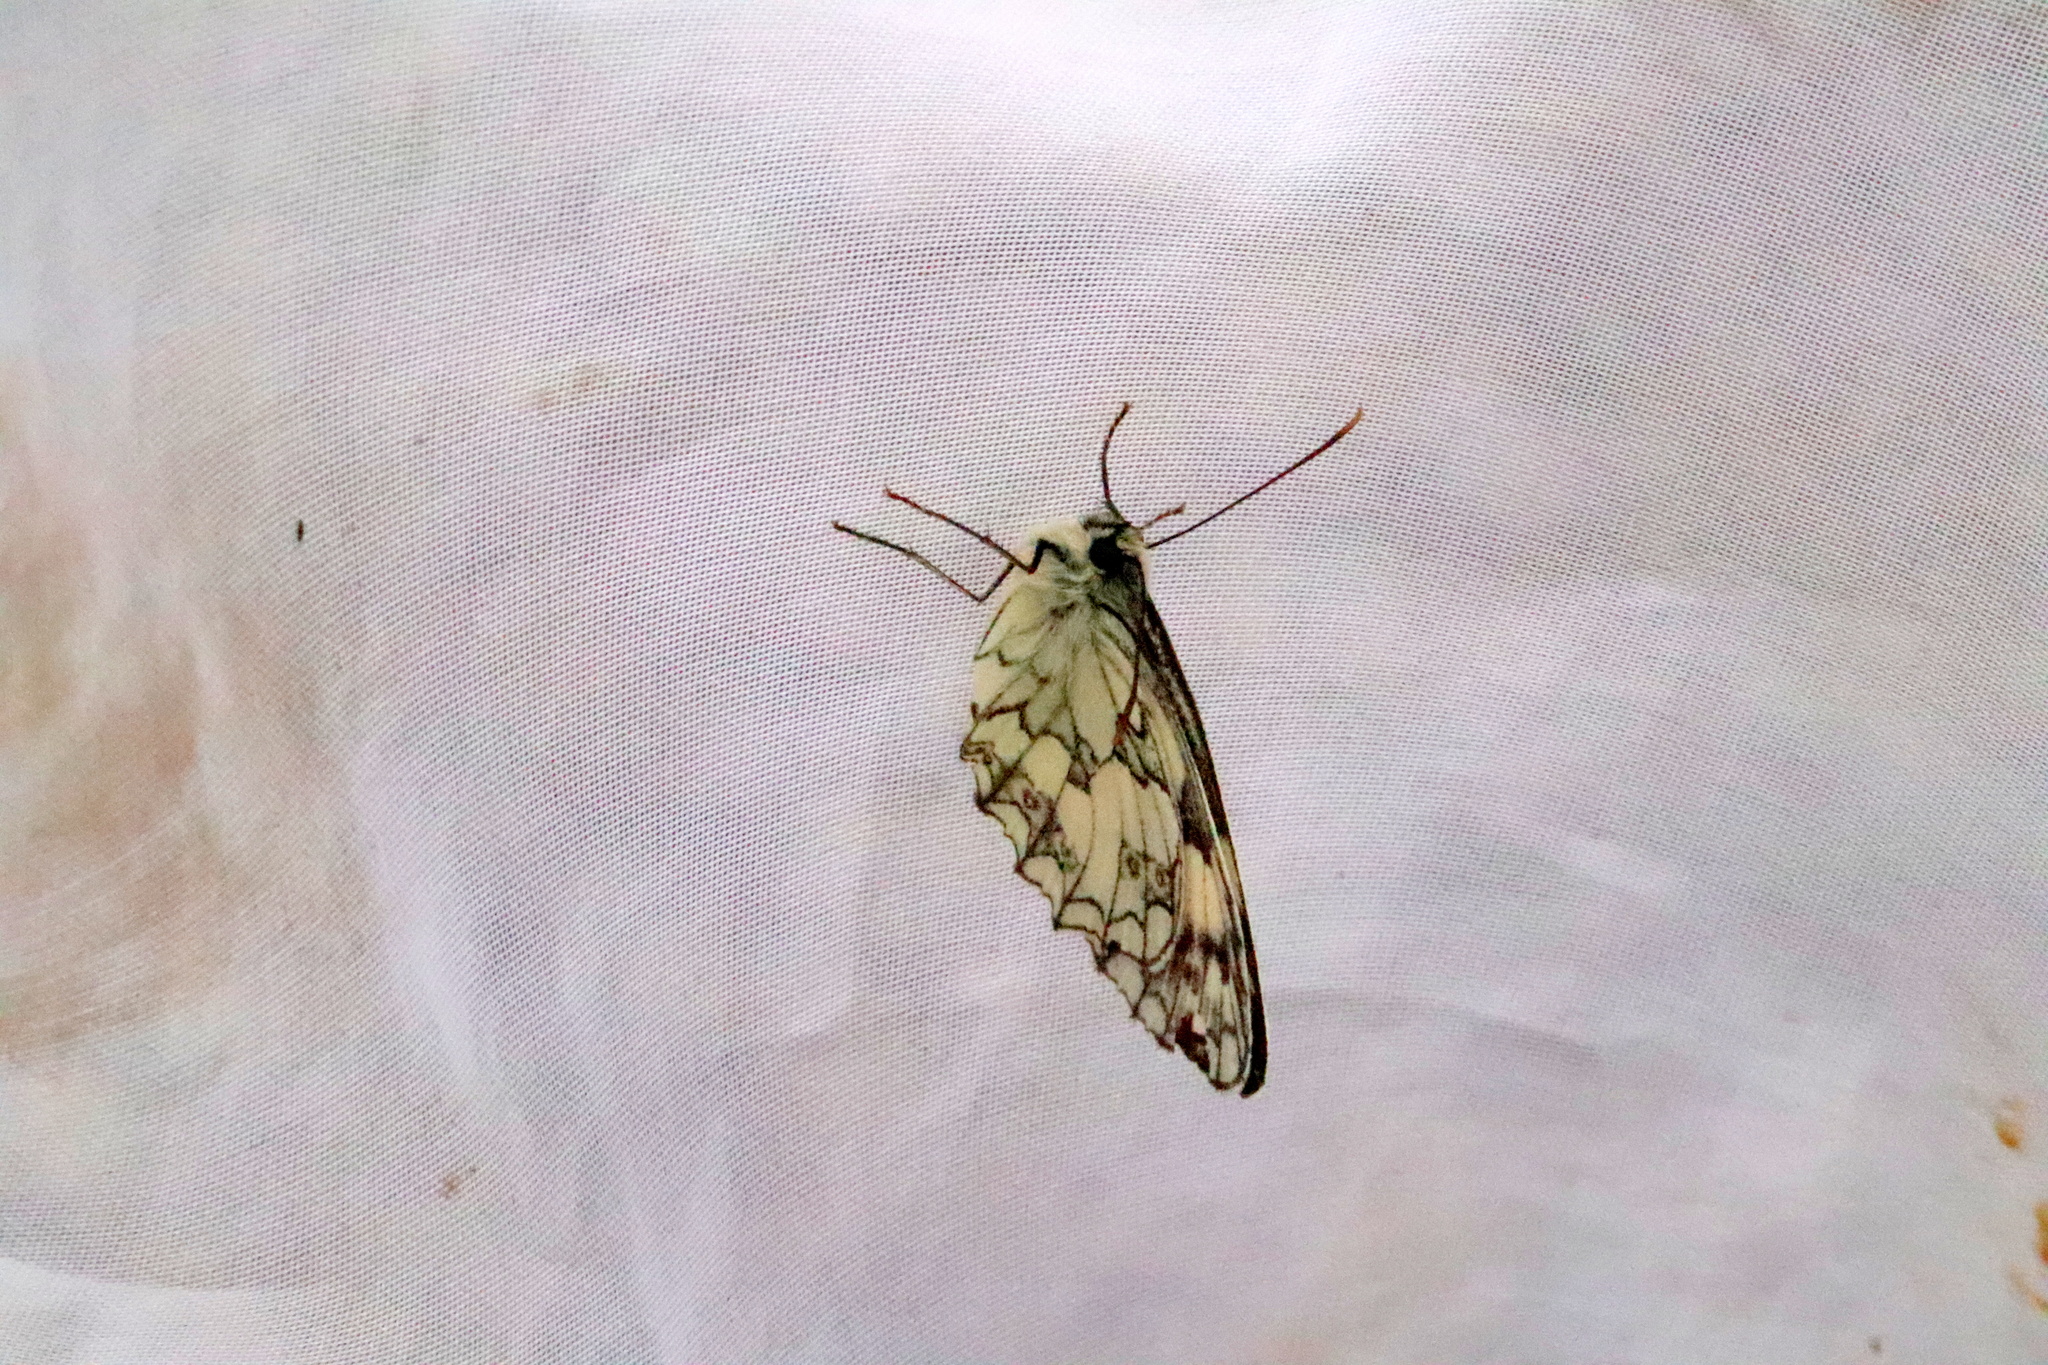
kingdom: Animalia
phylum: Arthropoda
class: Insecta
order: Lepidoptera
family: Nymphalidae
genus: Melanargia
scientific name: Melanargia galathea
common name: Marbled white
